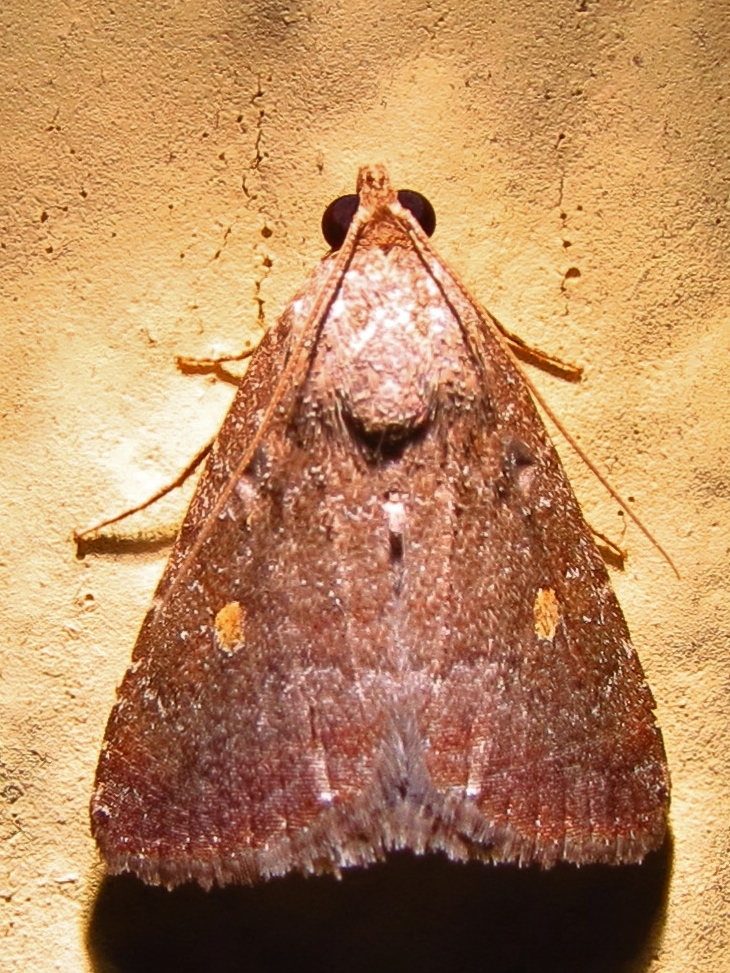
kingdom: Animalia
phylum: Arthropoda
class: Insecta
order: Lepidoptera
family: Noctuidae
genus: Amyna
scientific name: Amyna stricta
